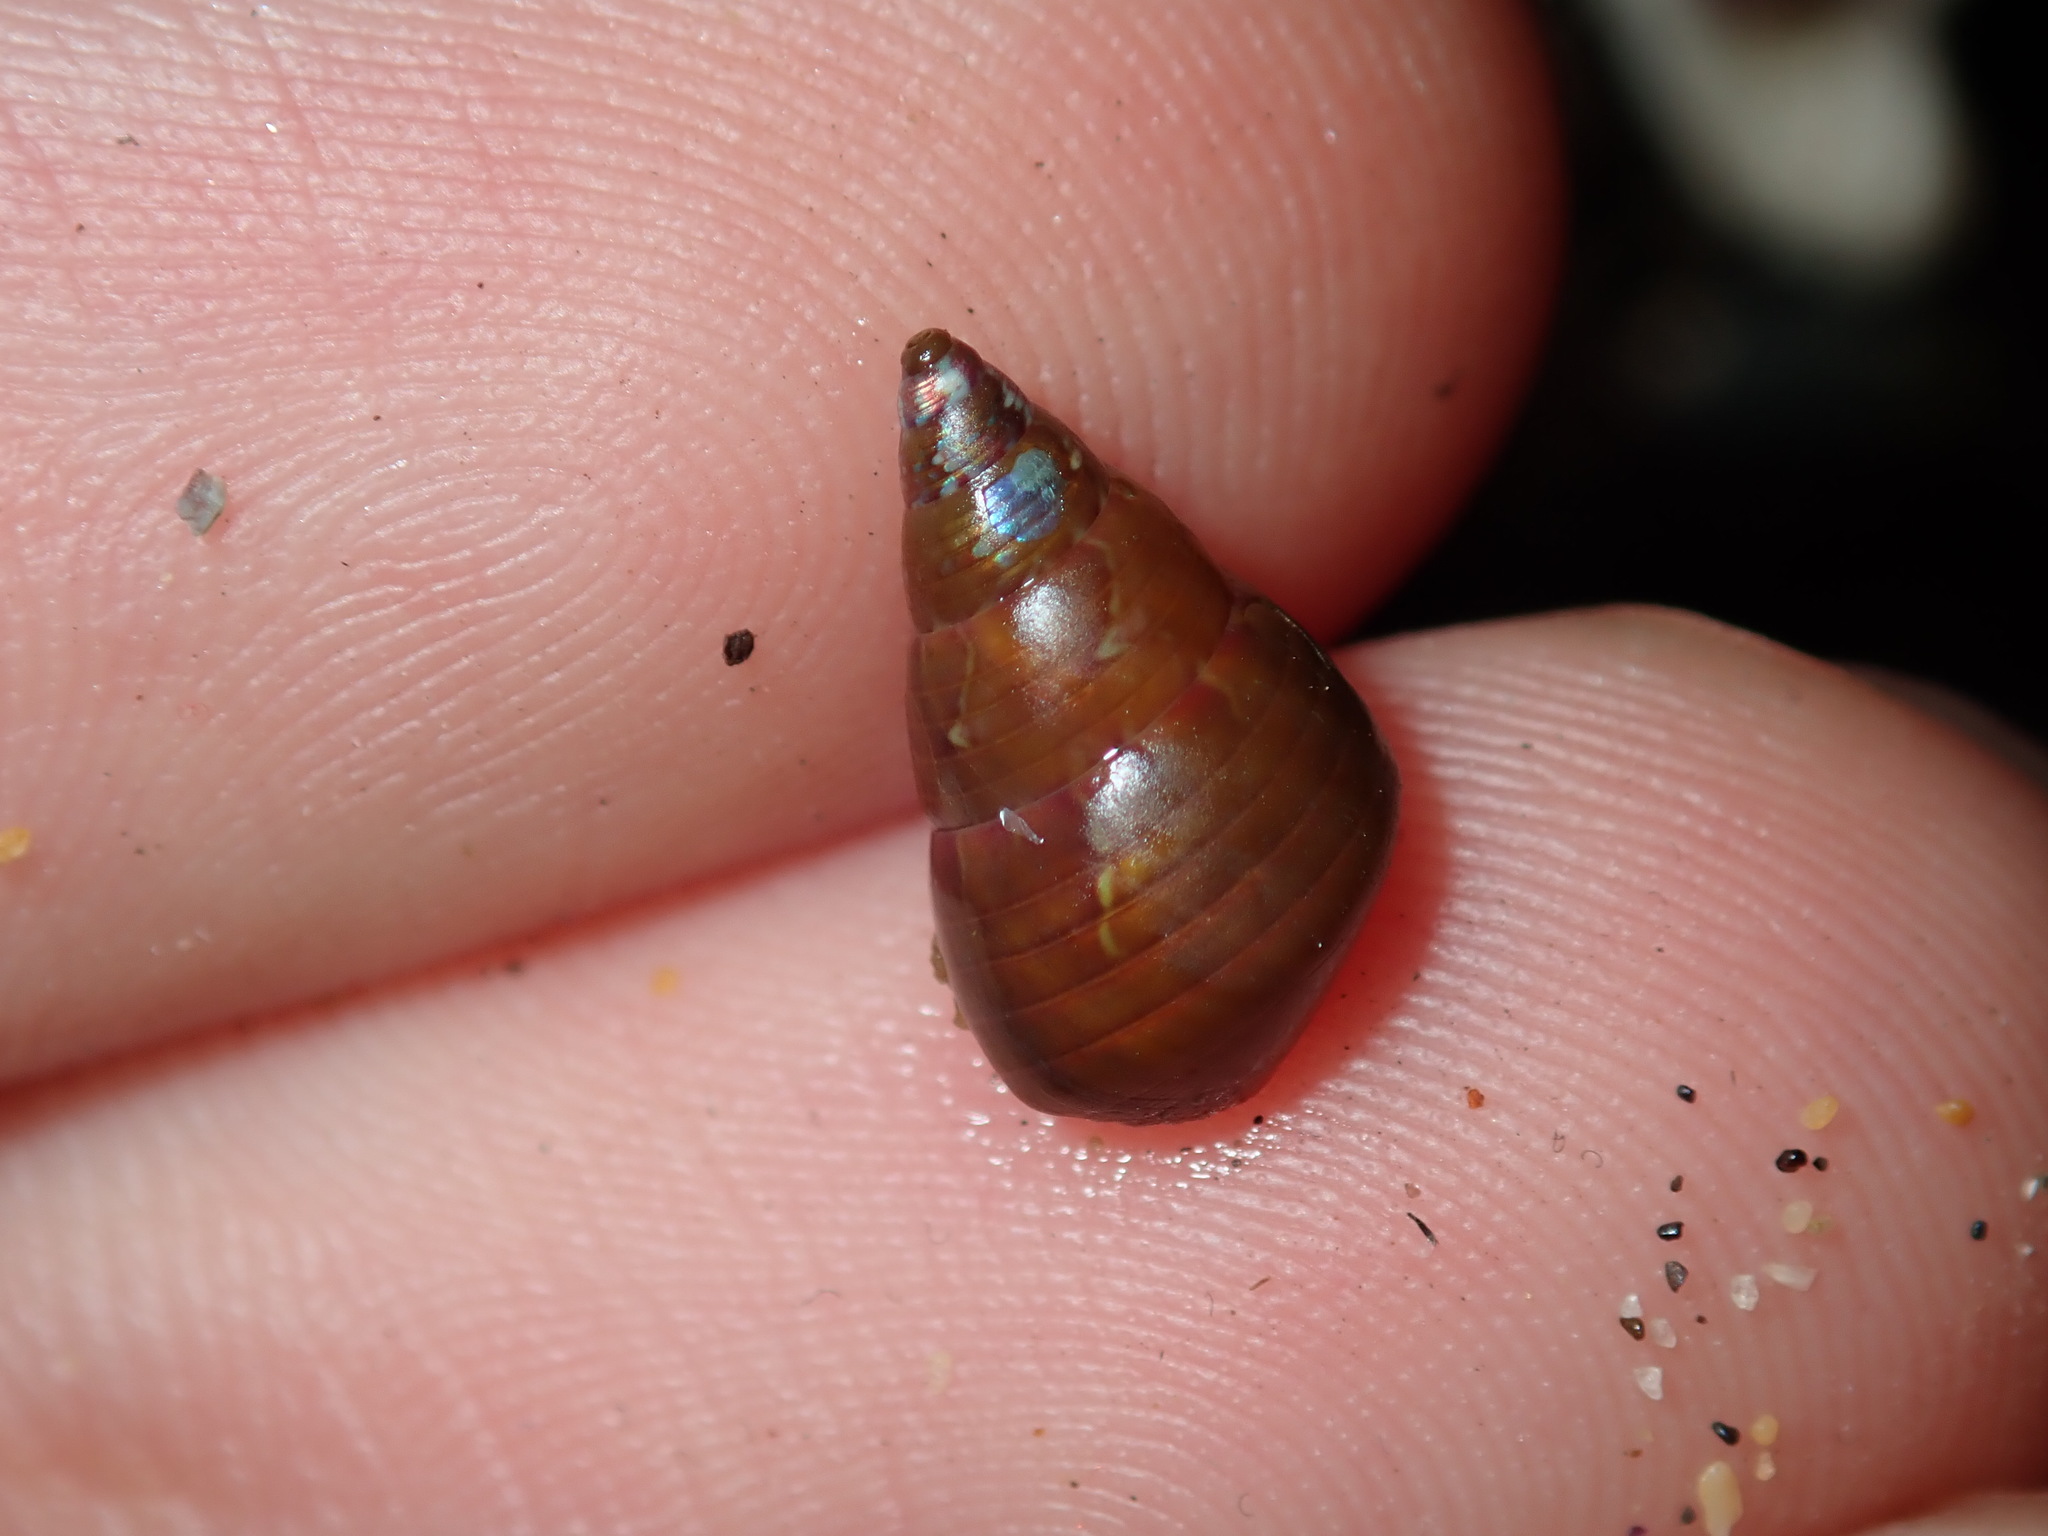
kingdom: Animalia
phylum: Mollusca
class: Gastropoda
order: Trochida
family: Trochidae
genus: Phasianotrochus
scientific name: Phasianotrochus eximius
